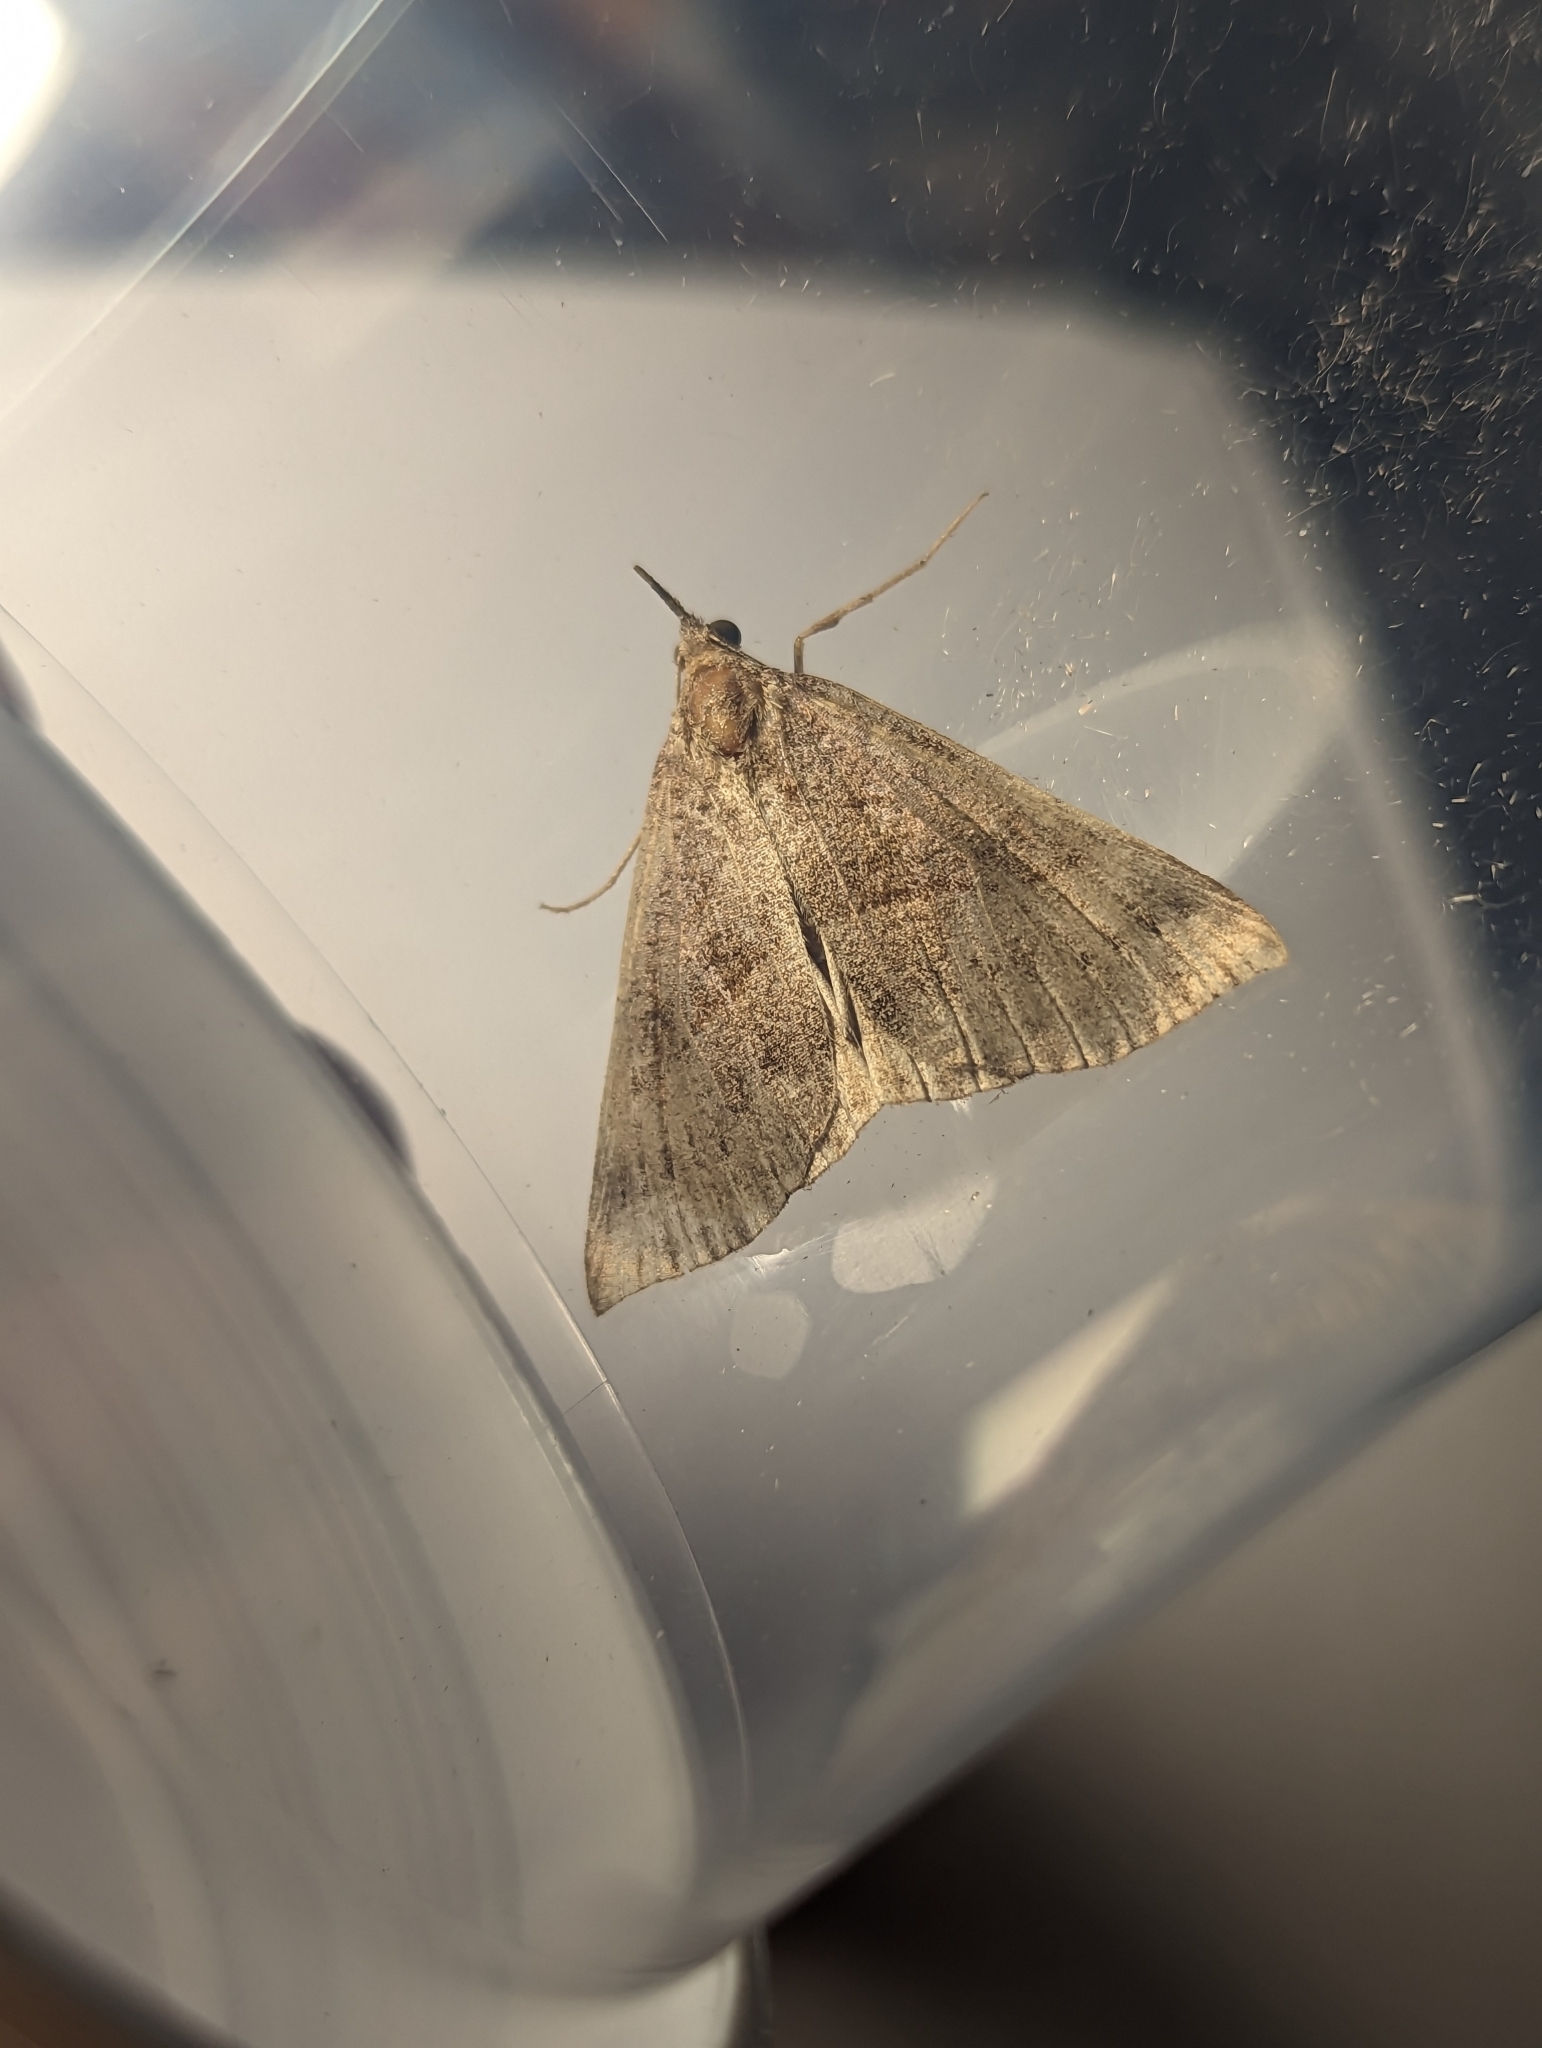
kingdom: Animalia
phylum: Arthropoda
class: Insecta
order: Lepidoptera
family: Erebidae
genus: Hypena
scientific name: Hypena proboscidalis
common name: Snout
